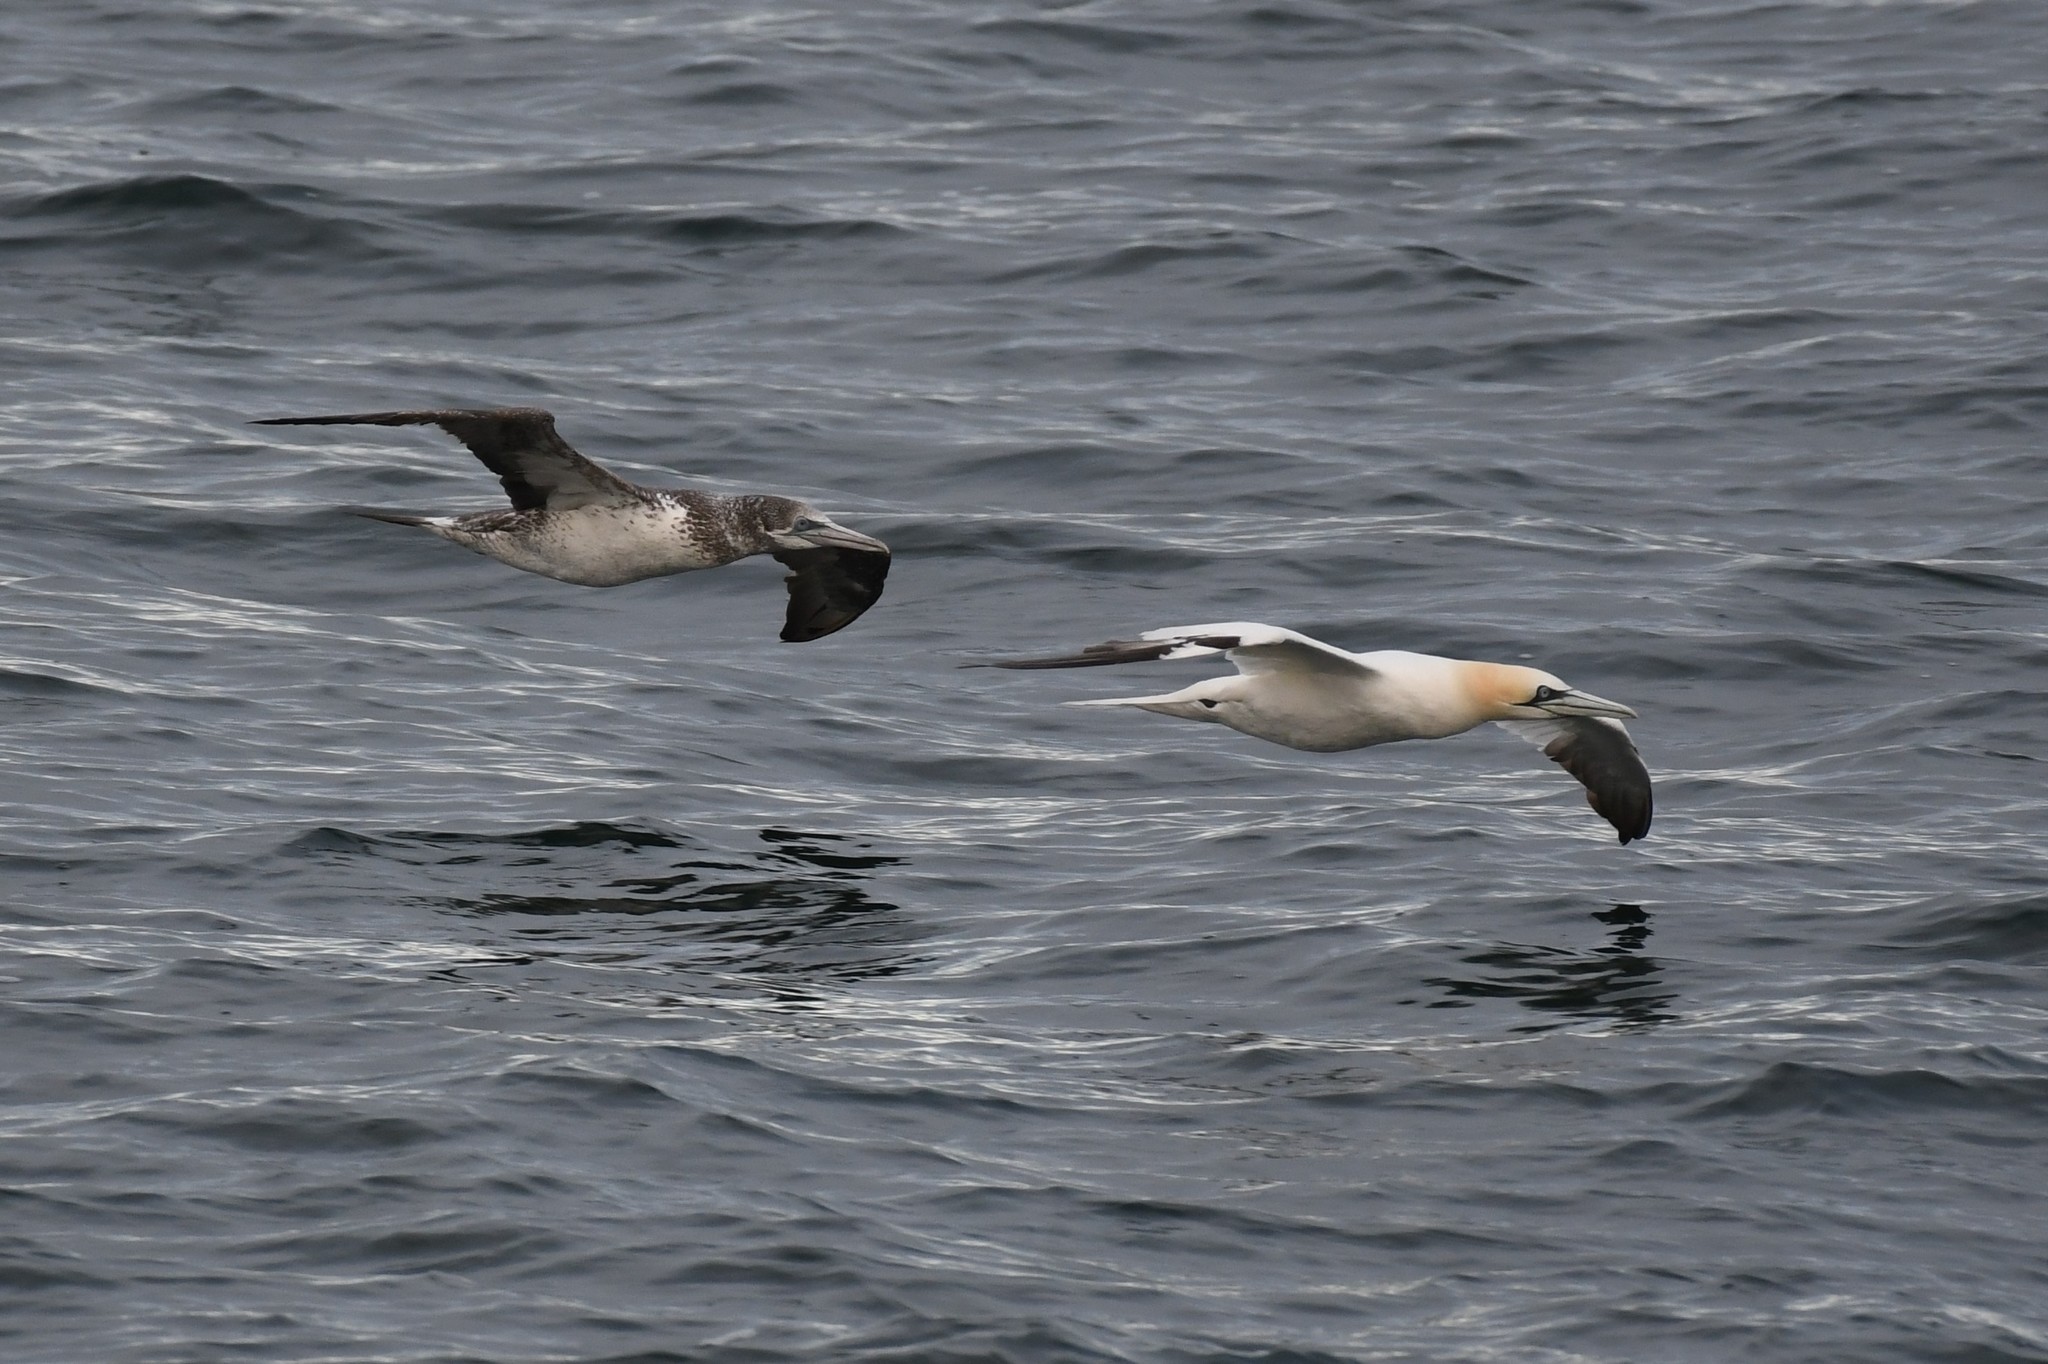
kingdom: Animalia
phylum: Chordata
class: Aves
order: Suliformes
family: Sulidae
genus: Morus
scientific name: Morus bassanus
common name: Northern gannet
